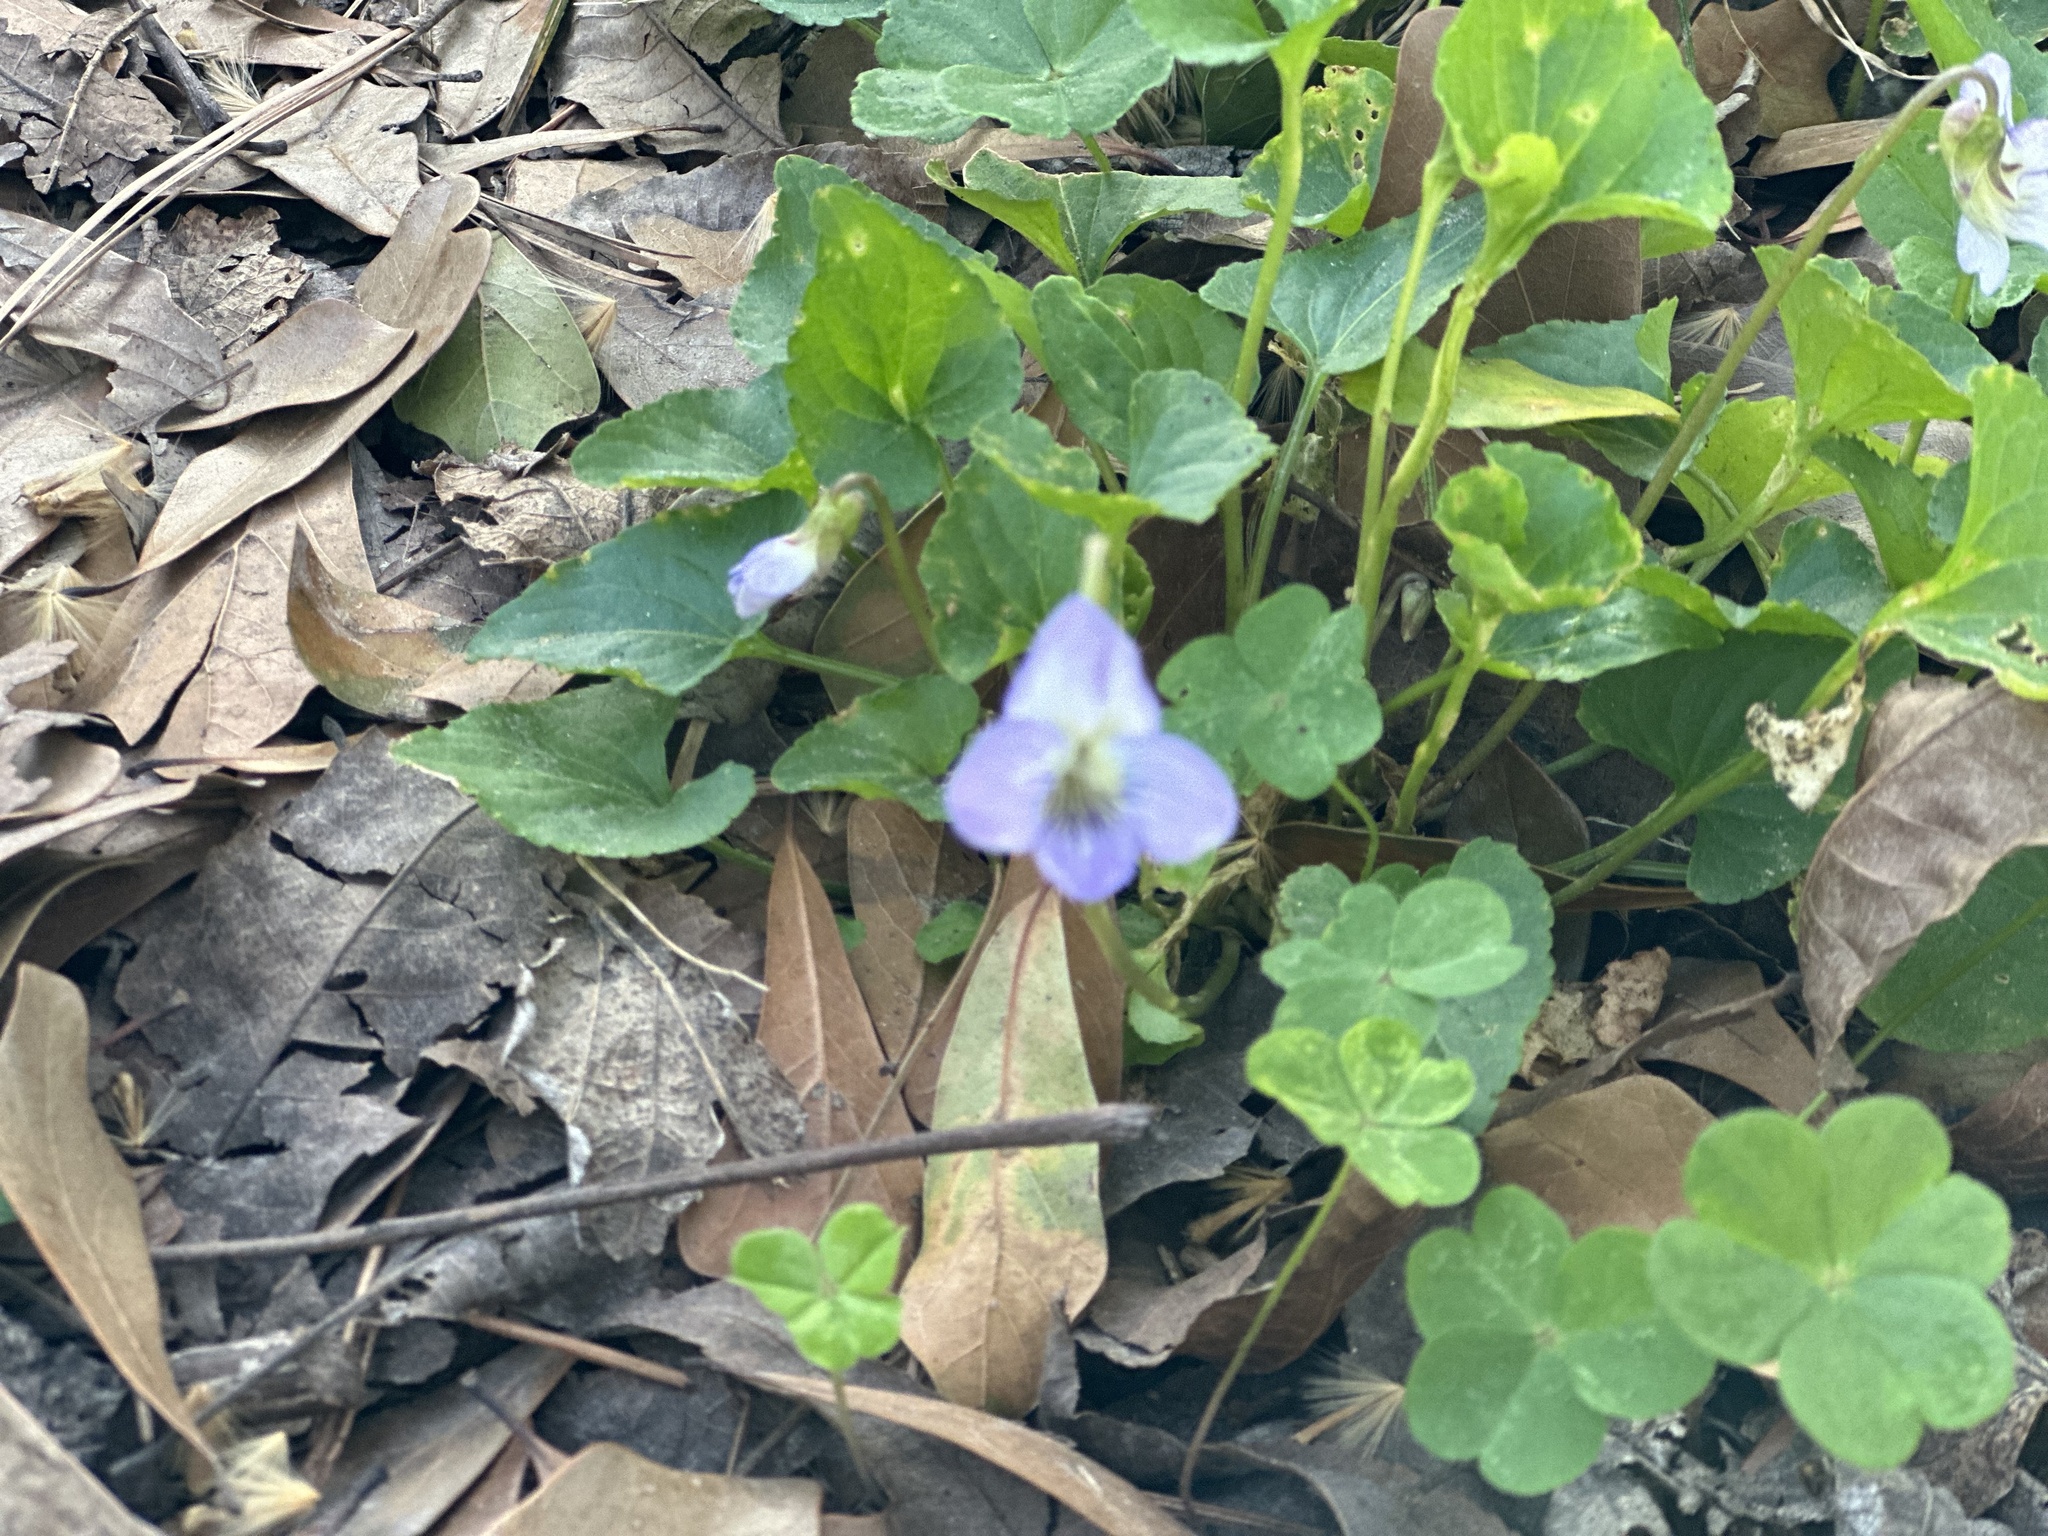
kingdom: Plantae
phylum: Tracheophyta
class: Magnoliopsida
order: Malpighiales
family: Violaceae
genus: Viola
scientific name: Viola missouriensis
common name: Missouri violet
